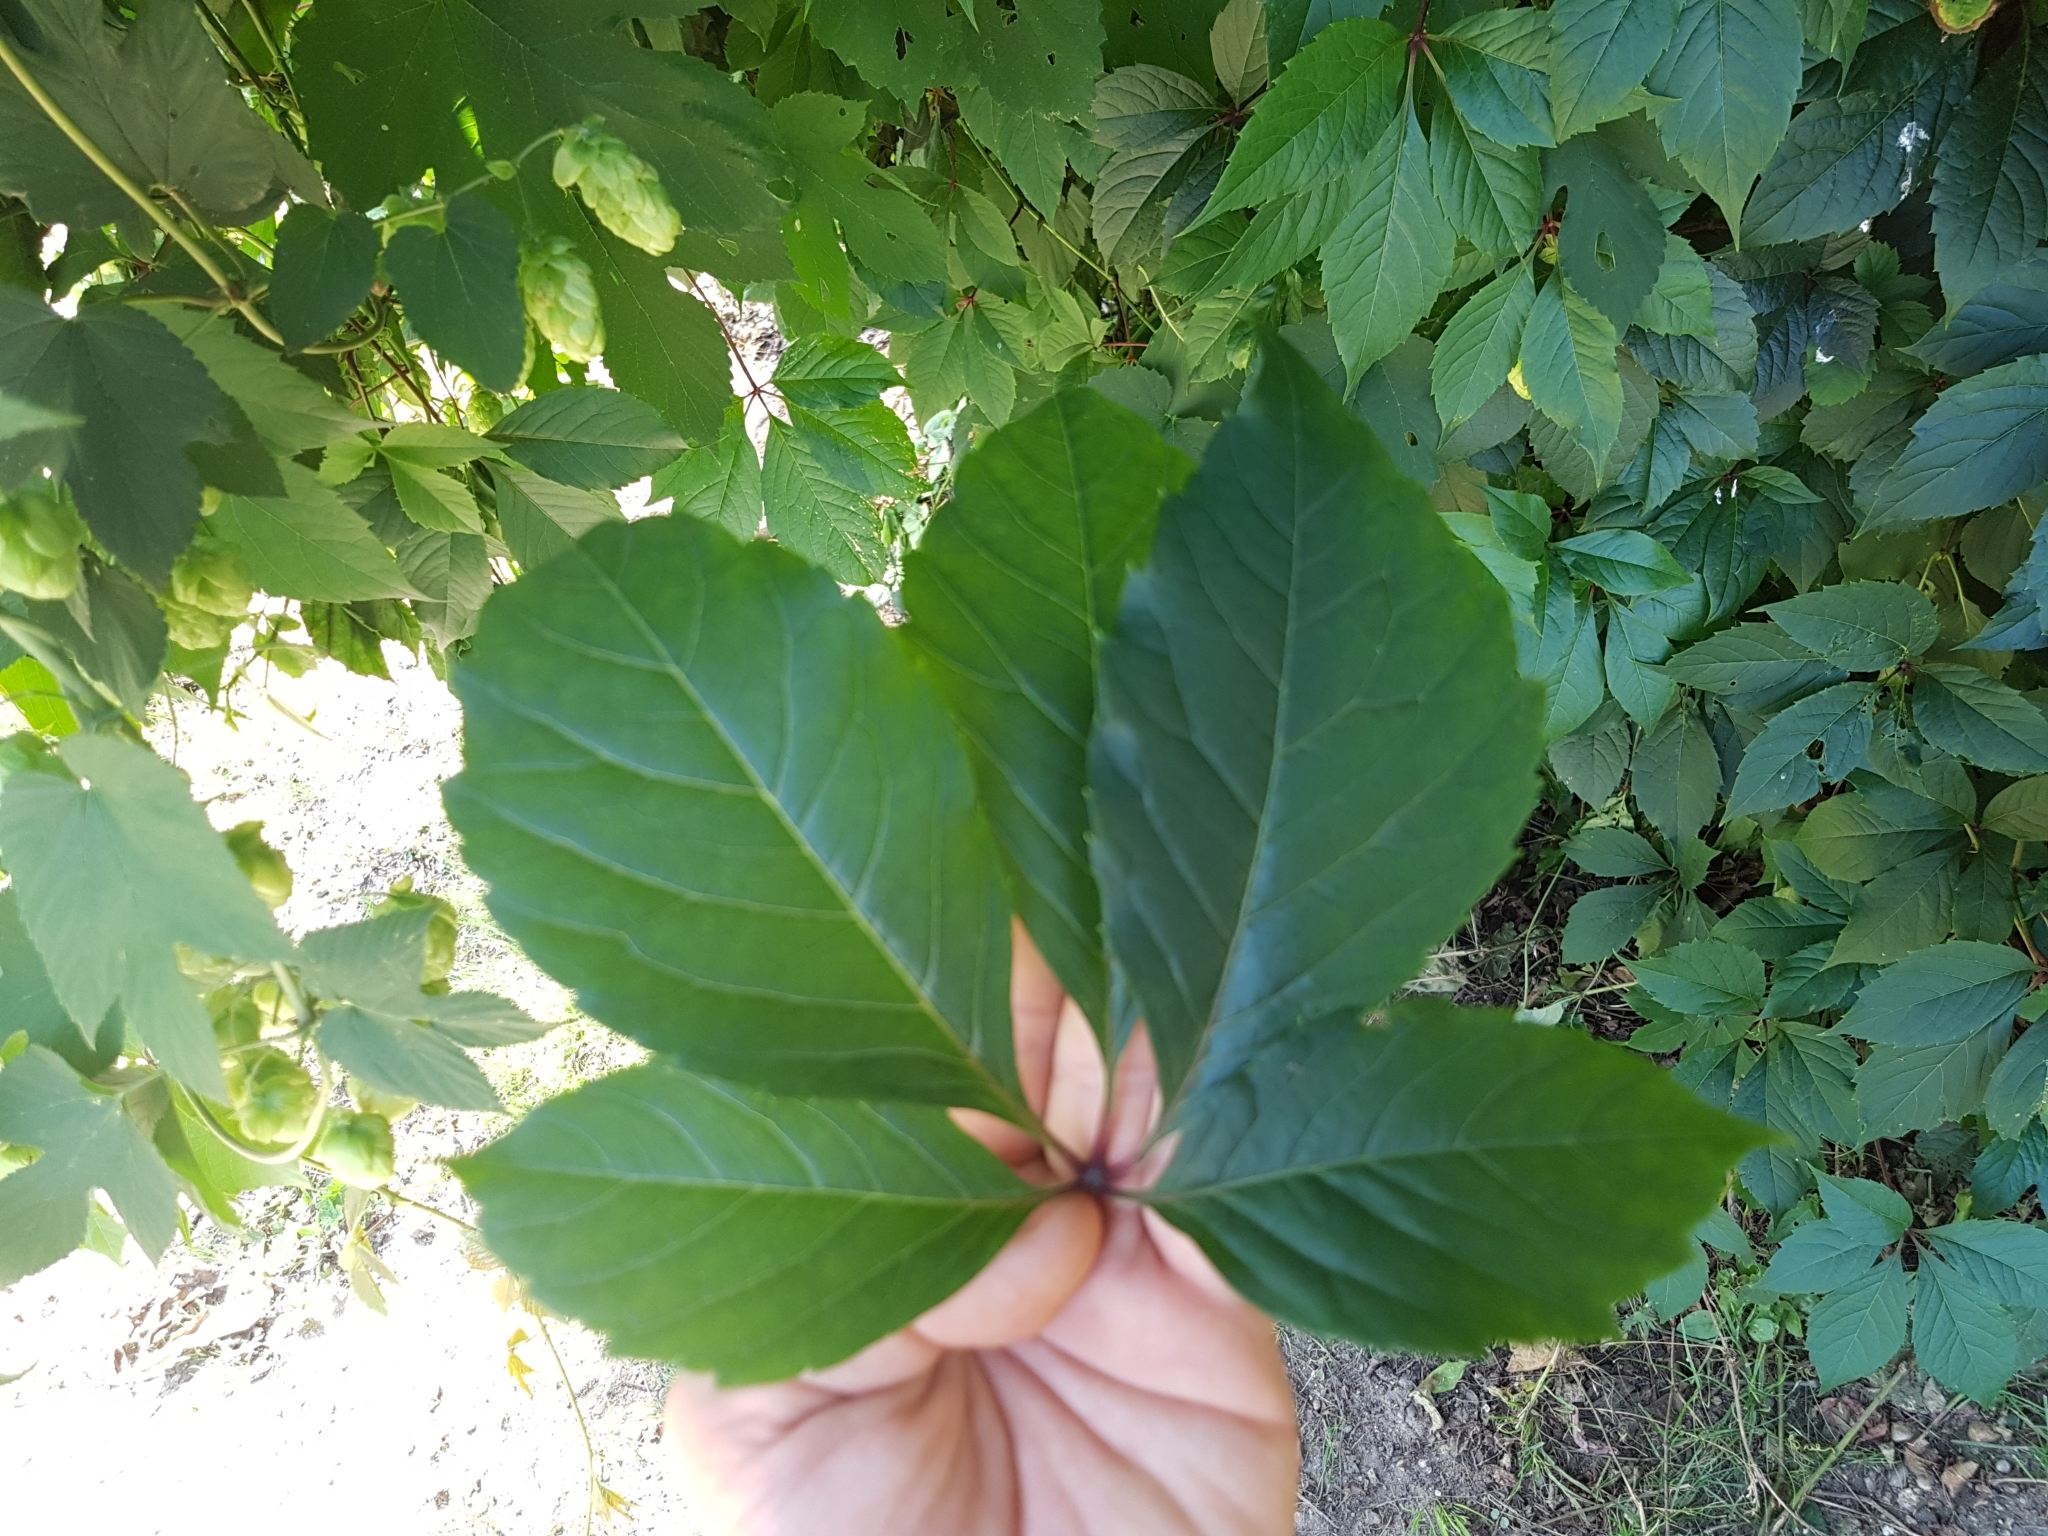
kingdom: Plantae
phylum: Tracheophyta
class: Magnoliopsida
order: Rosales
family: Cannabaceae
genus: Humulus
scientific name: Humulus lupulus
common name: Hop
